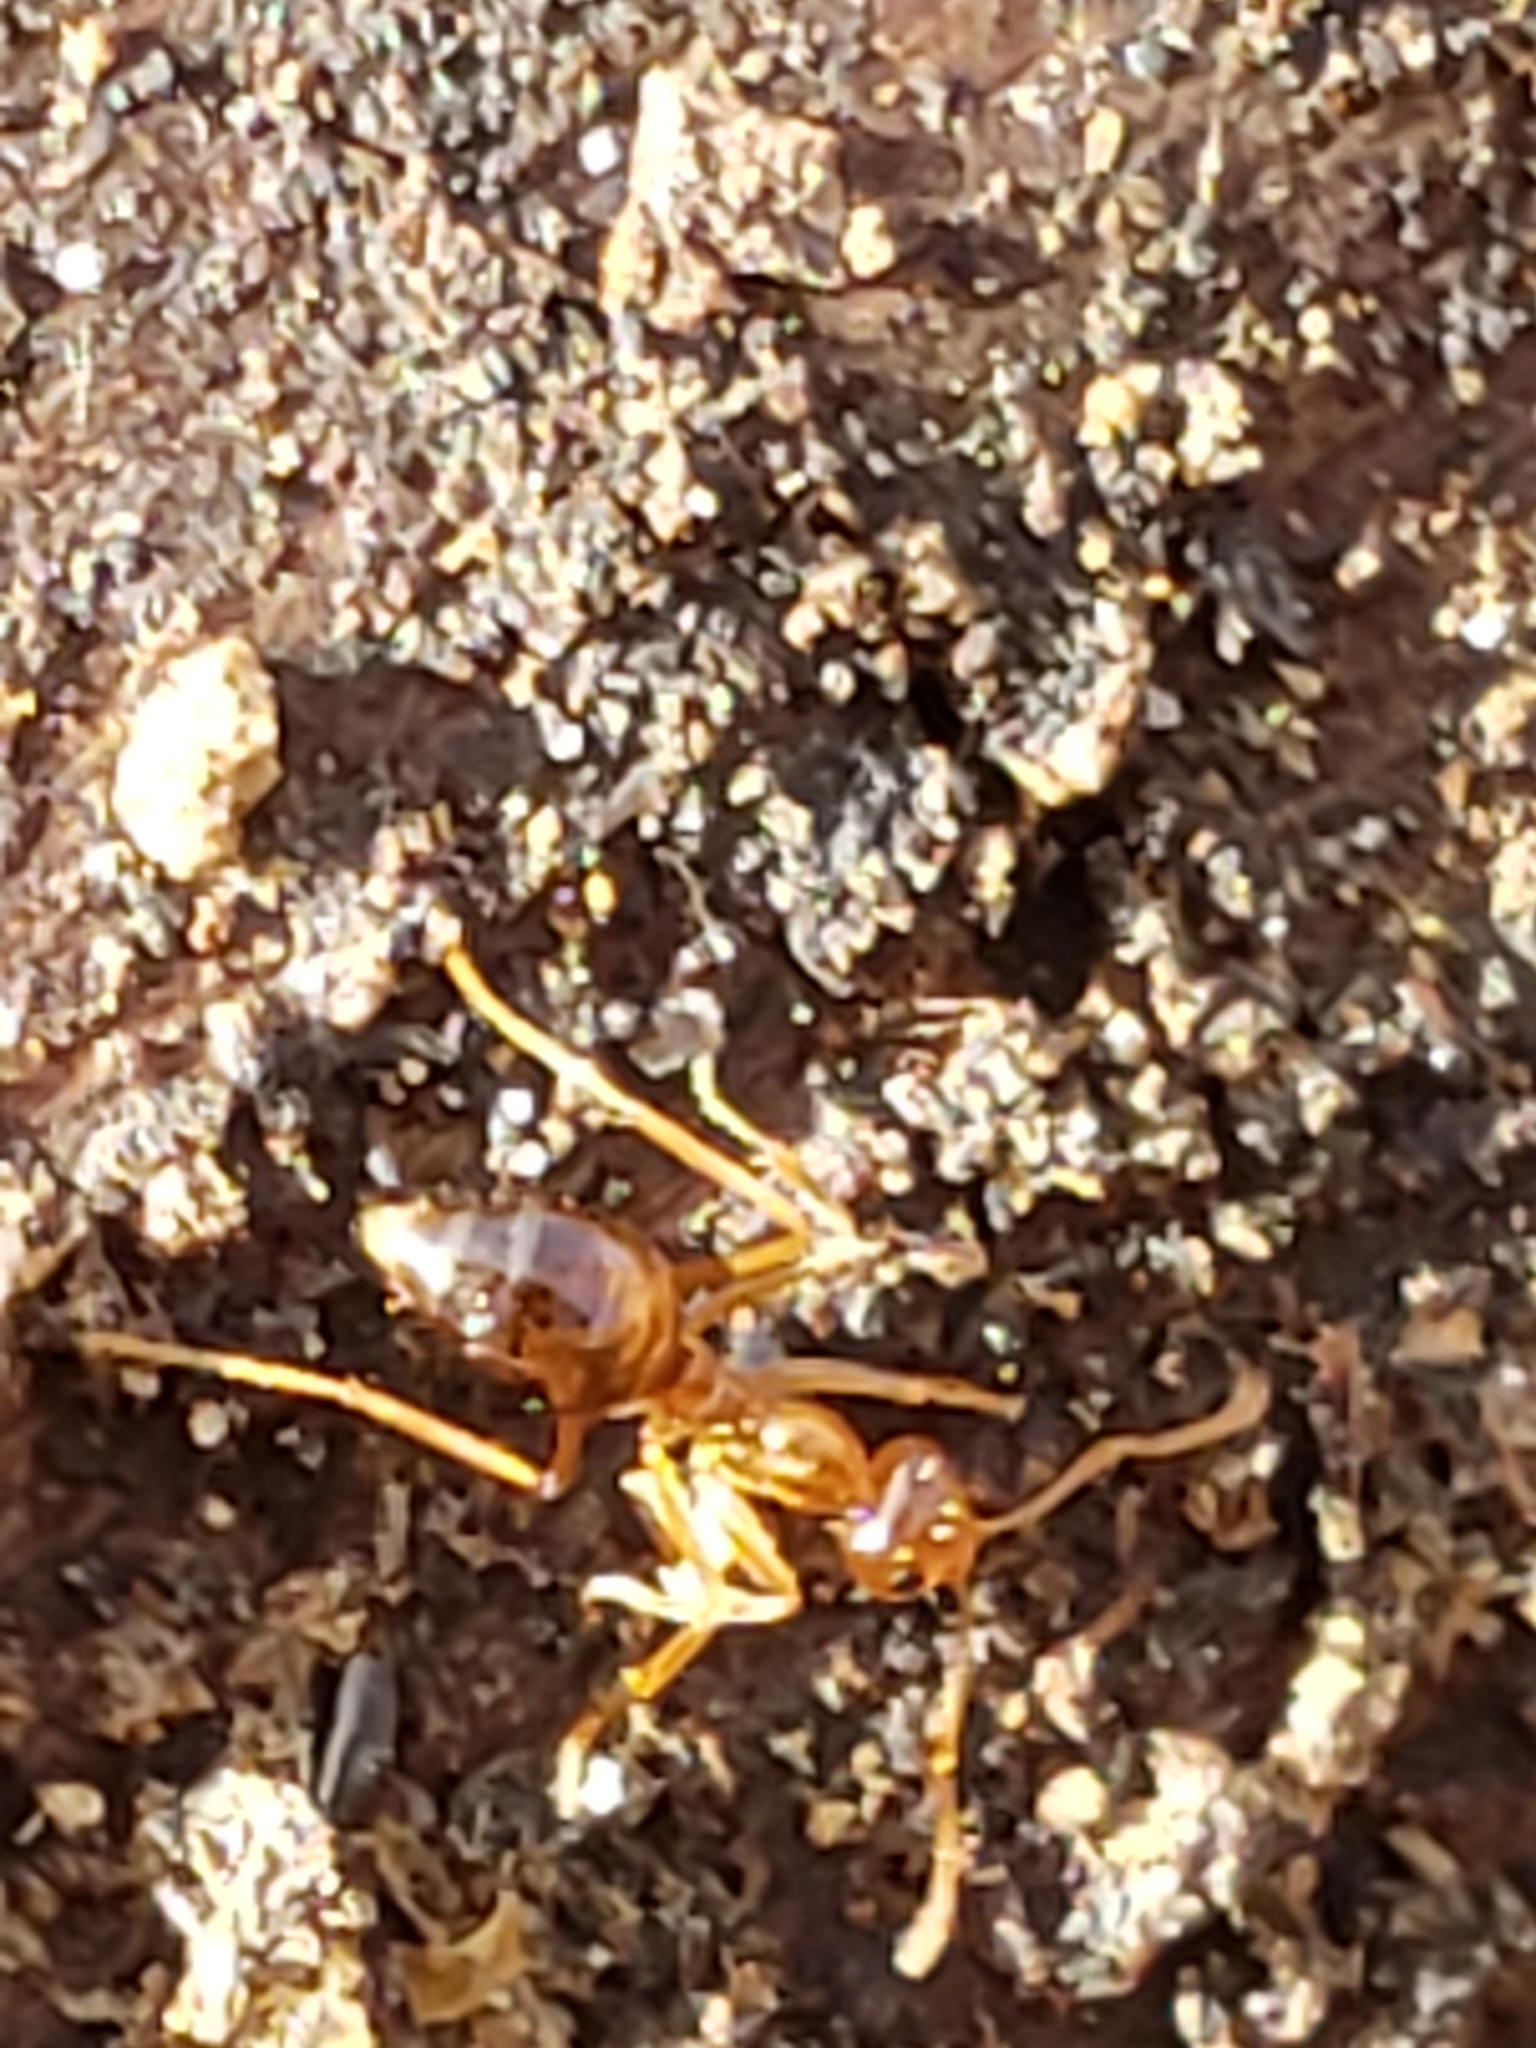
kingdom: Animalia
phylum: Arthropoda
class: Insecta
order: Hymenoptera
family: Formicidae
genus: Prenolepis
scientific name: Prenolepis imparis
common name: Small honey ant
